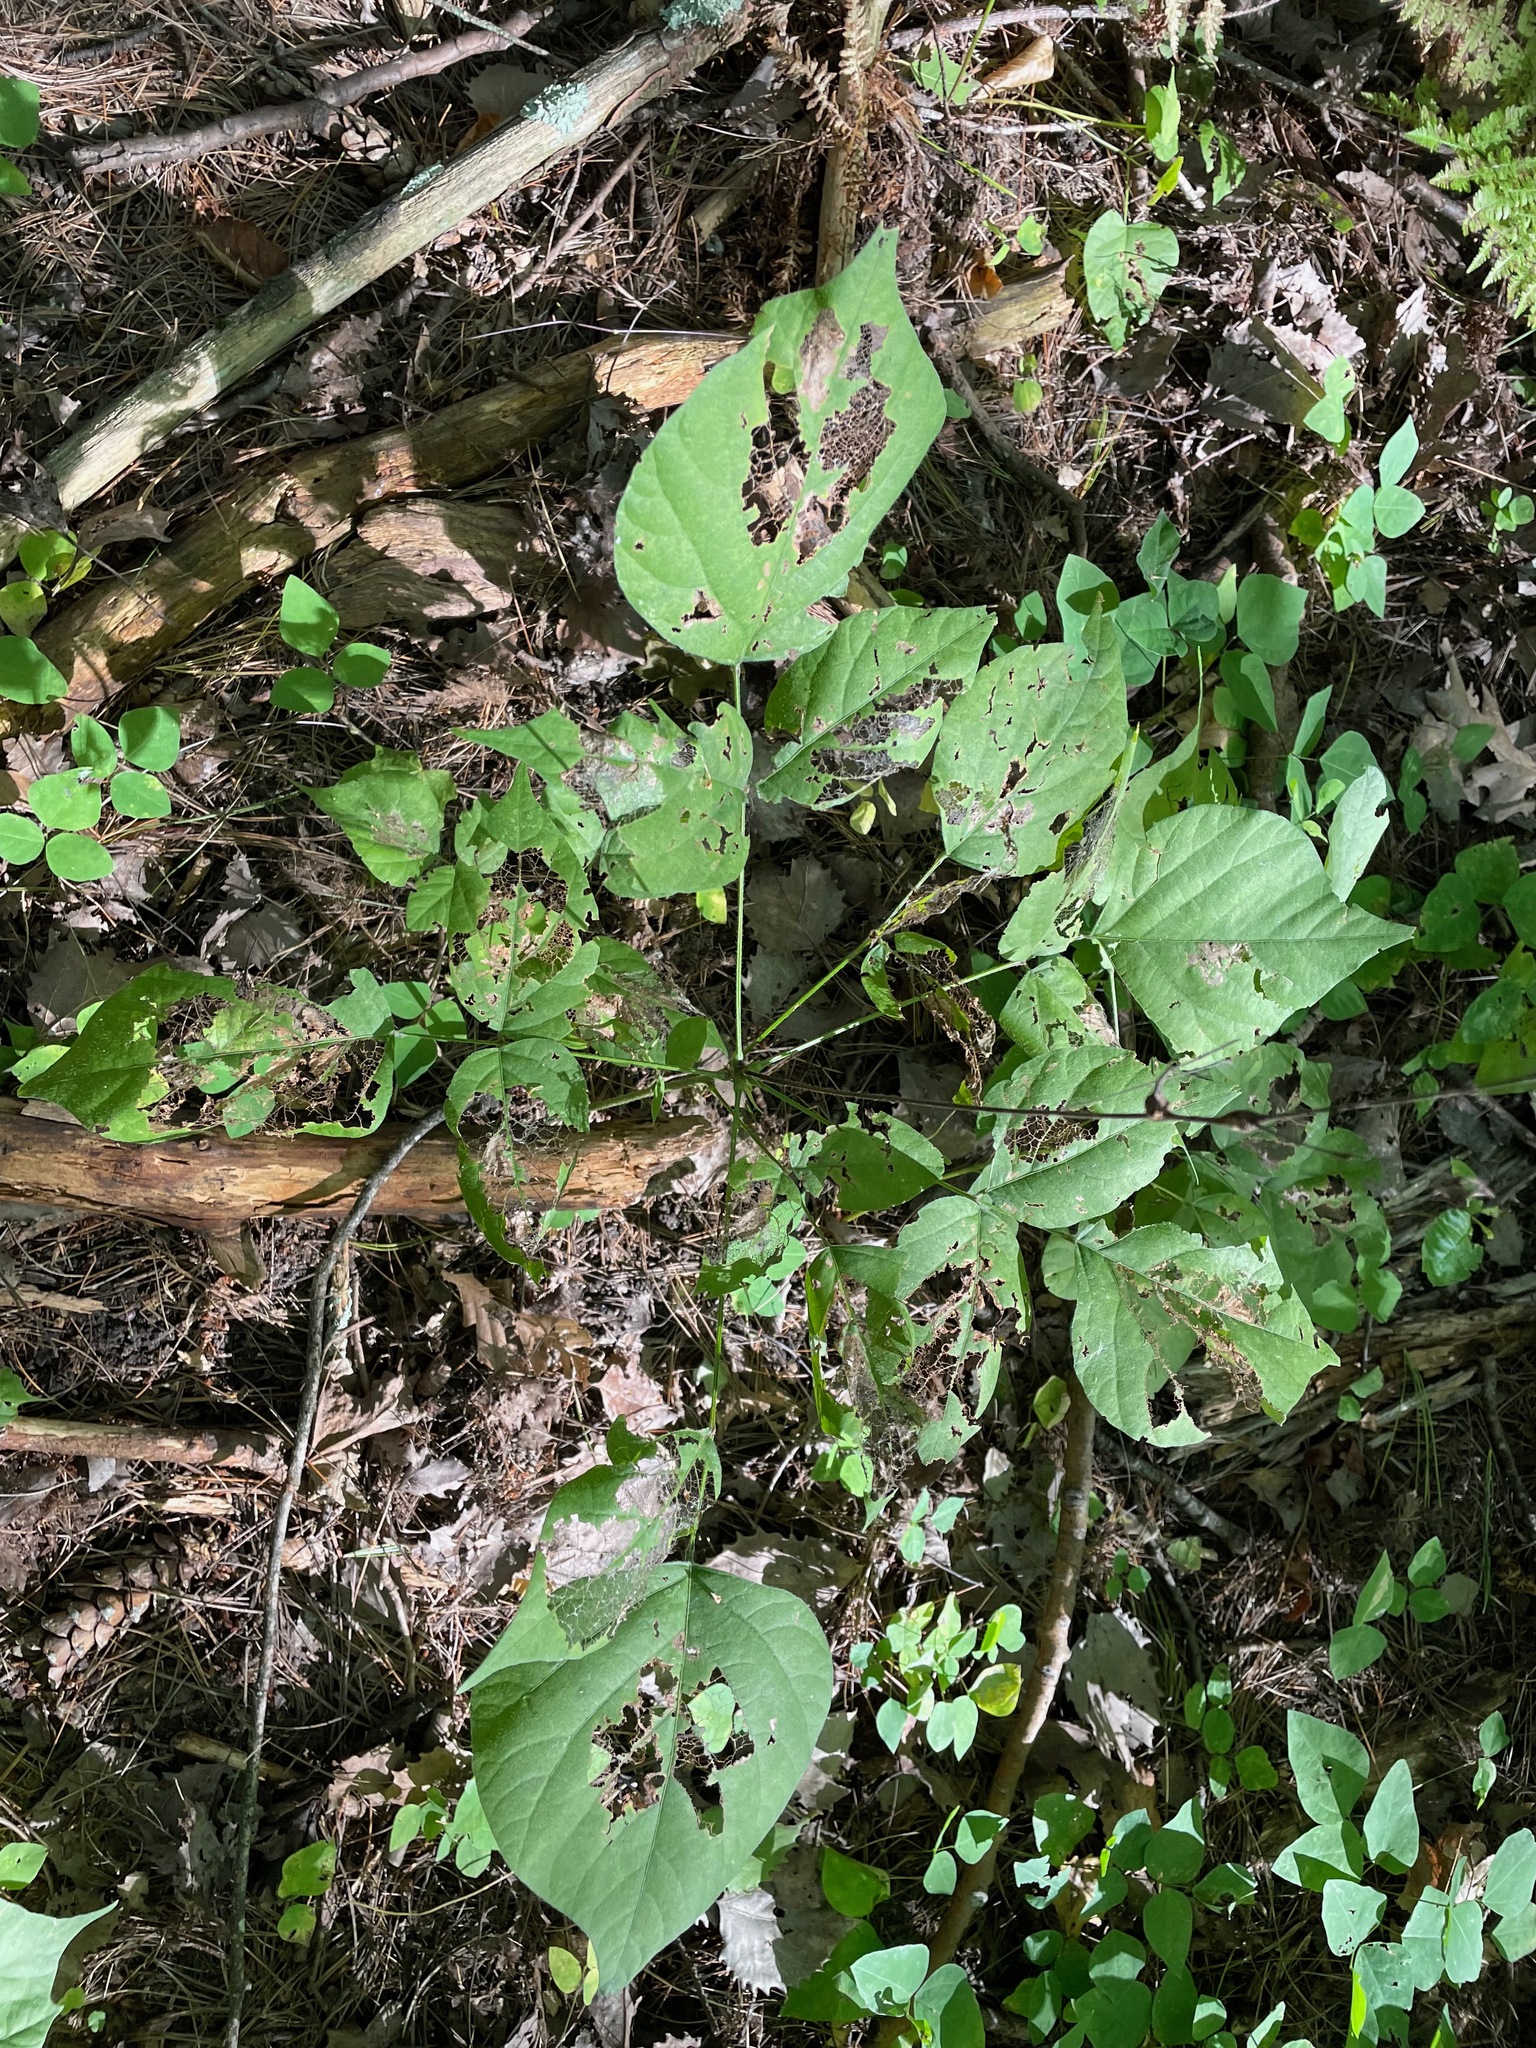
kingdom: Plantae
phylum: Tracheophyta
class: Magnoliopsida
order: Fabales
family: Fabaceae
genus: Hylodesmum
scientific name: Hylodesmum glutinosum
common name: Clustered-leaved tick-trefoil
